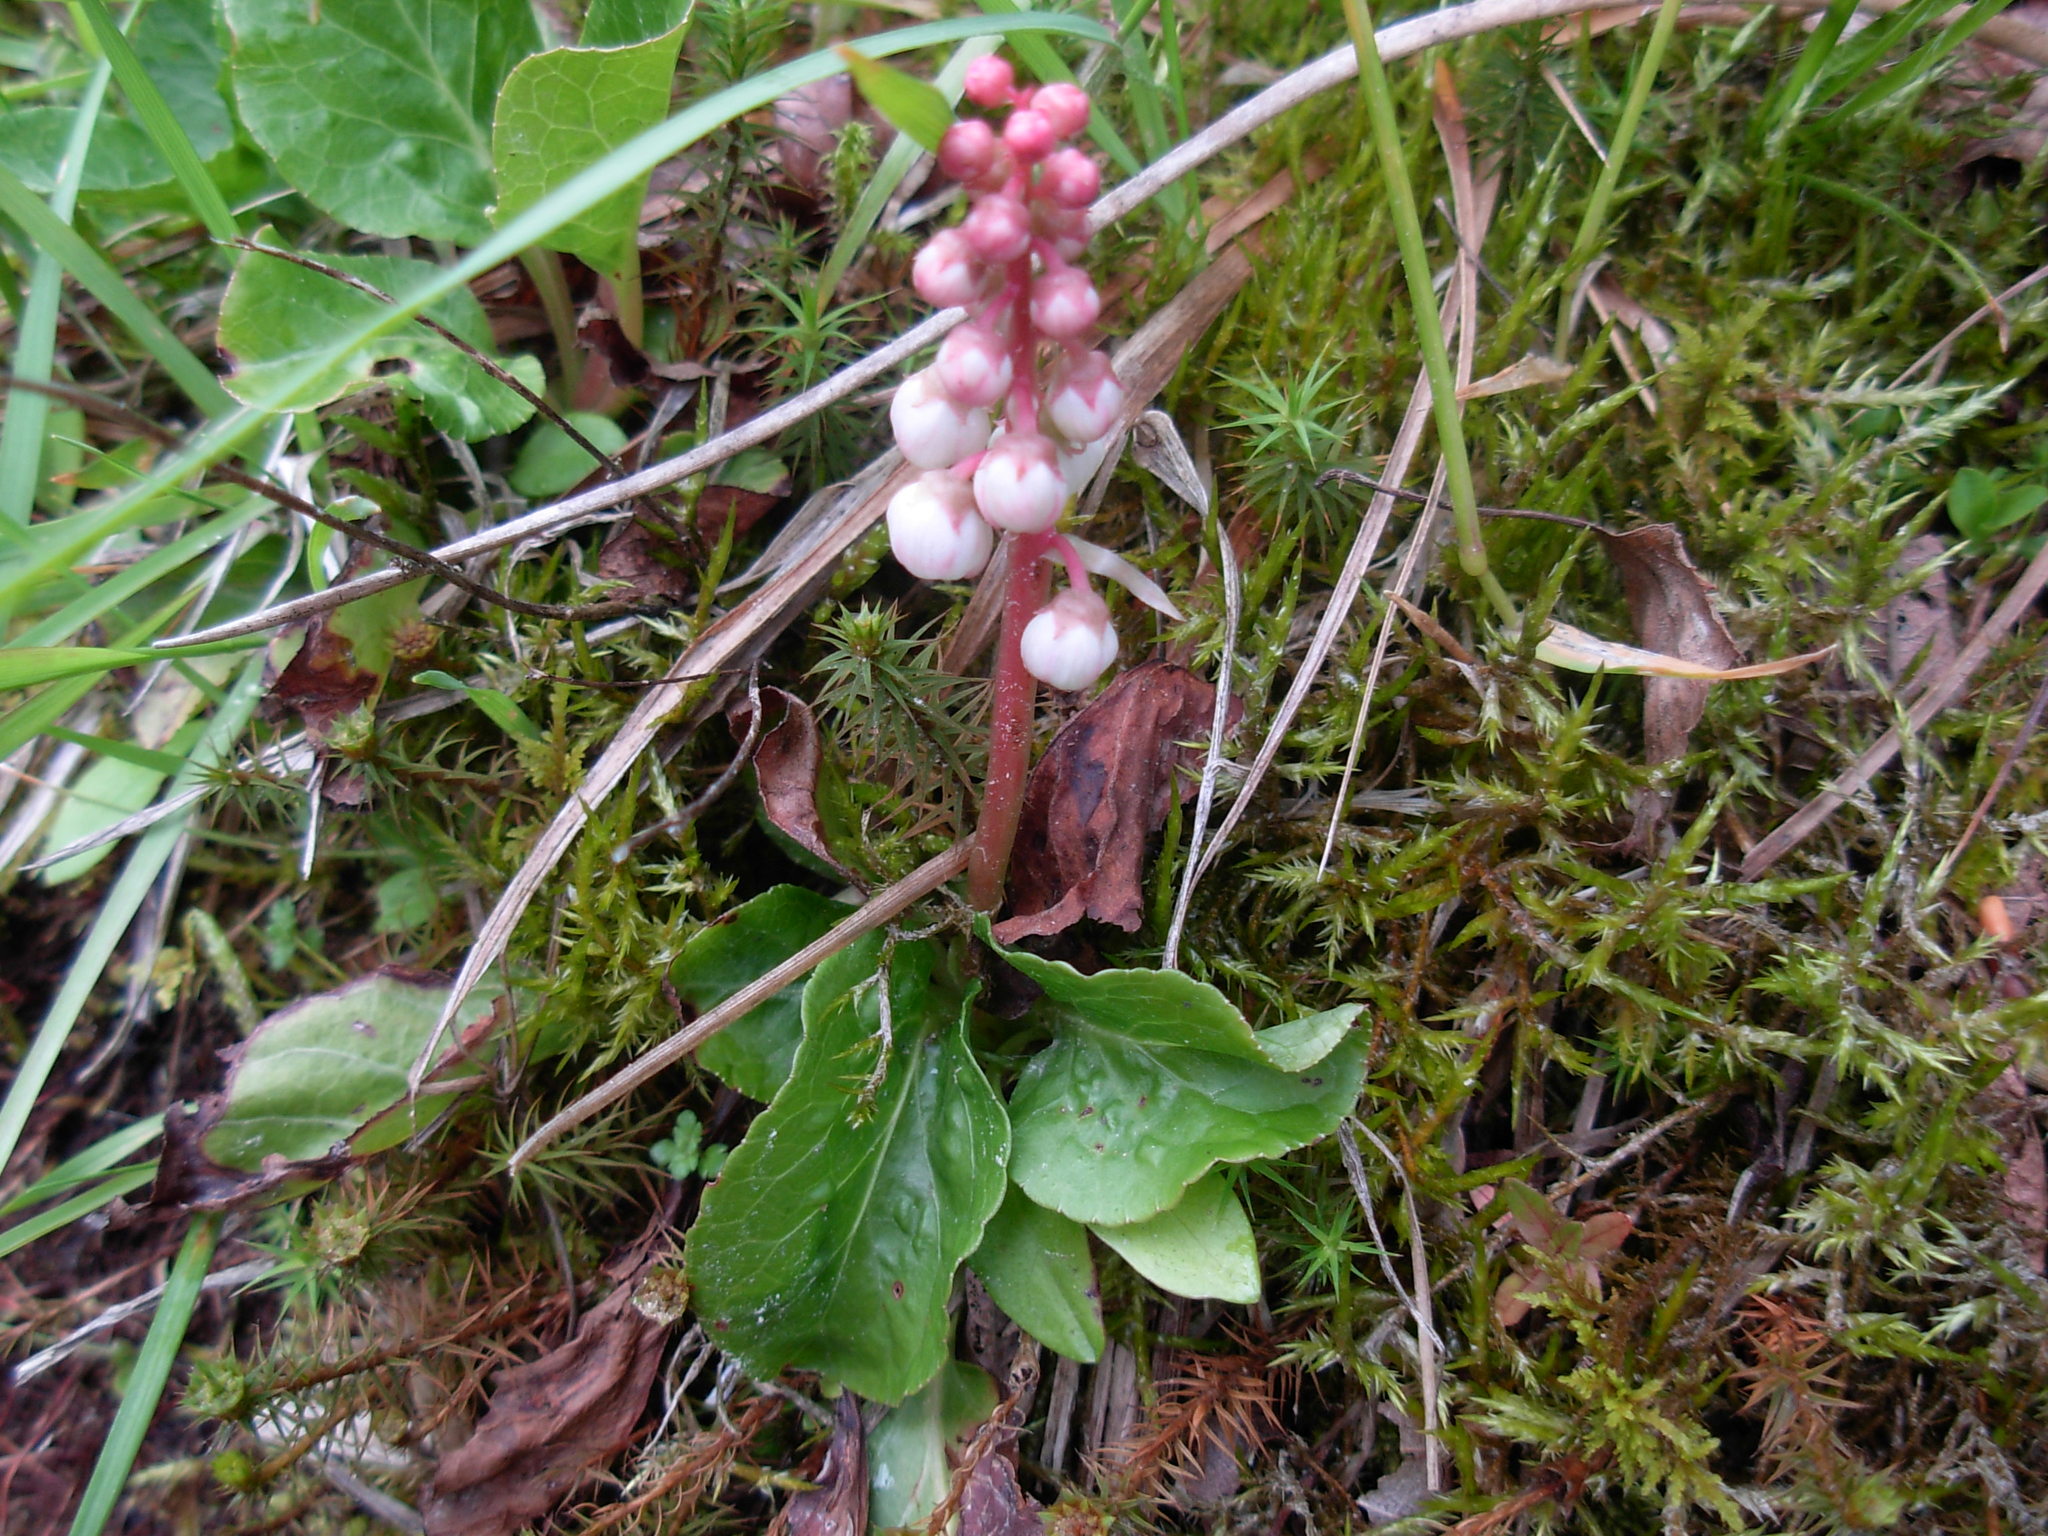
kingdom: Plantae
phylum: Tracheophyta
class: Magnoliopsida
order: Ericales
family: Ericaceae
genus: Pyrola
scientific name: Pyrola minor
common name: Common wintergreen
